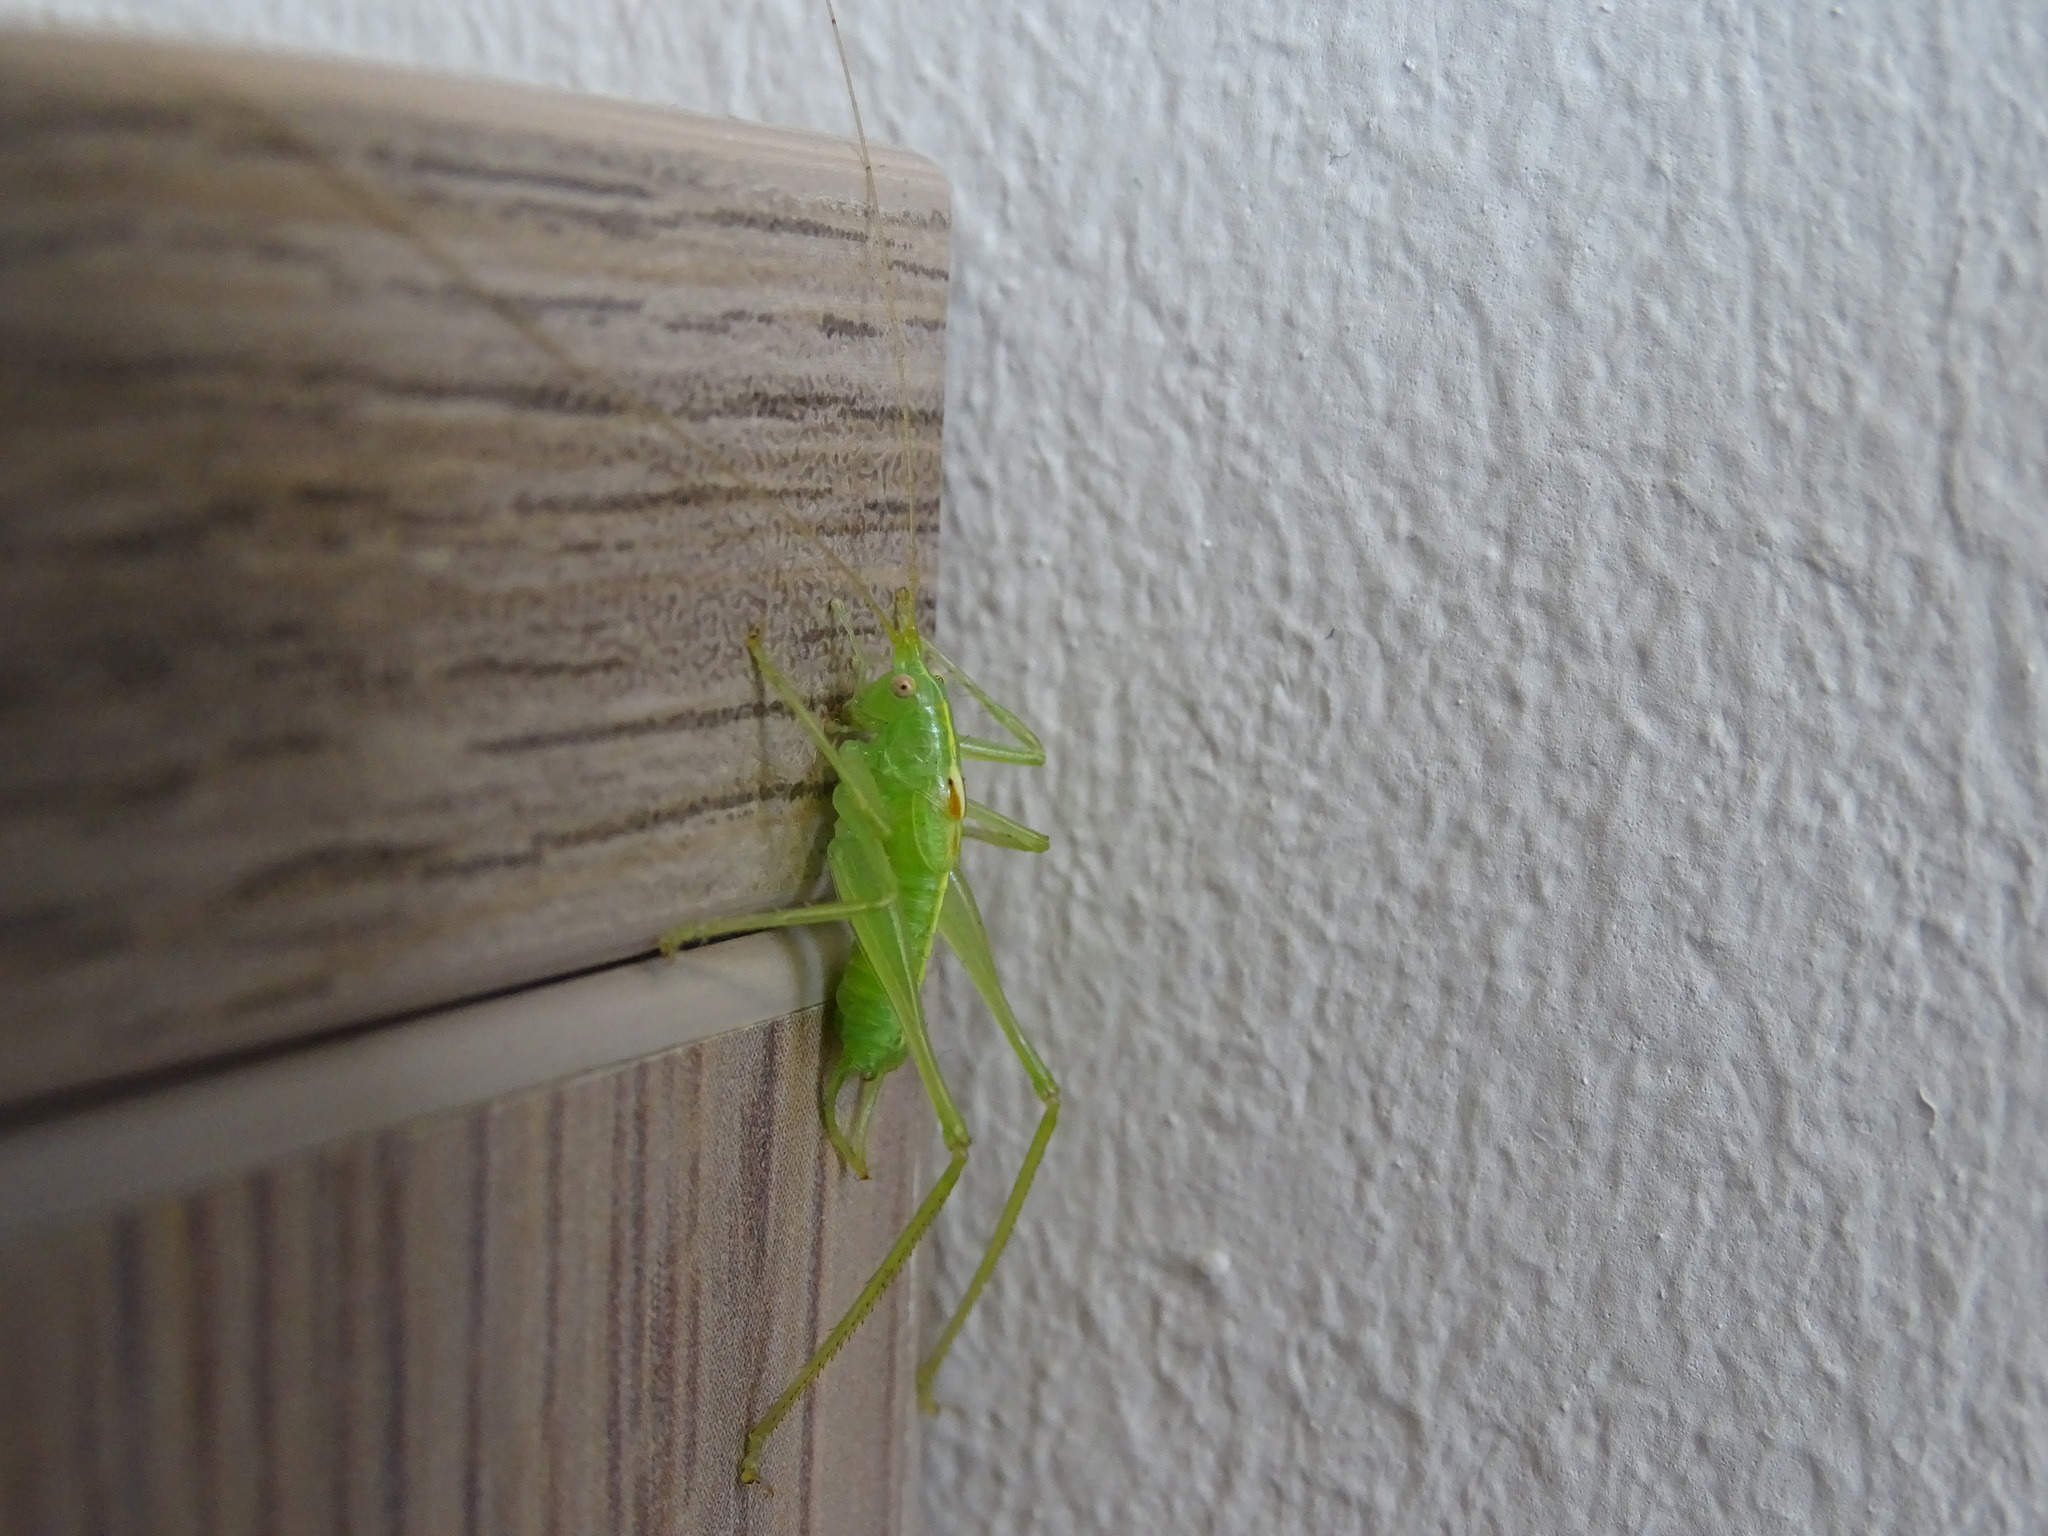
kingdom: Animalia
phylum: Arthropoda
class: Insecta
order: Orthoptera
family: Tettigoniidae
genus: Meconema
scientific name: Meconema meridionale
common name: Southern oak bush-cricket
